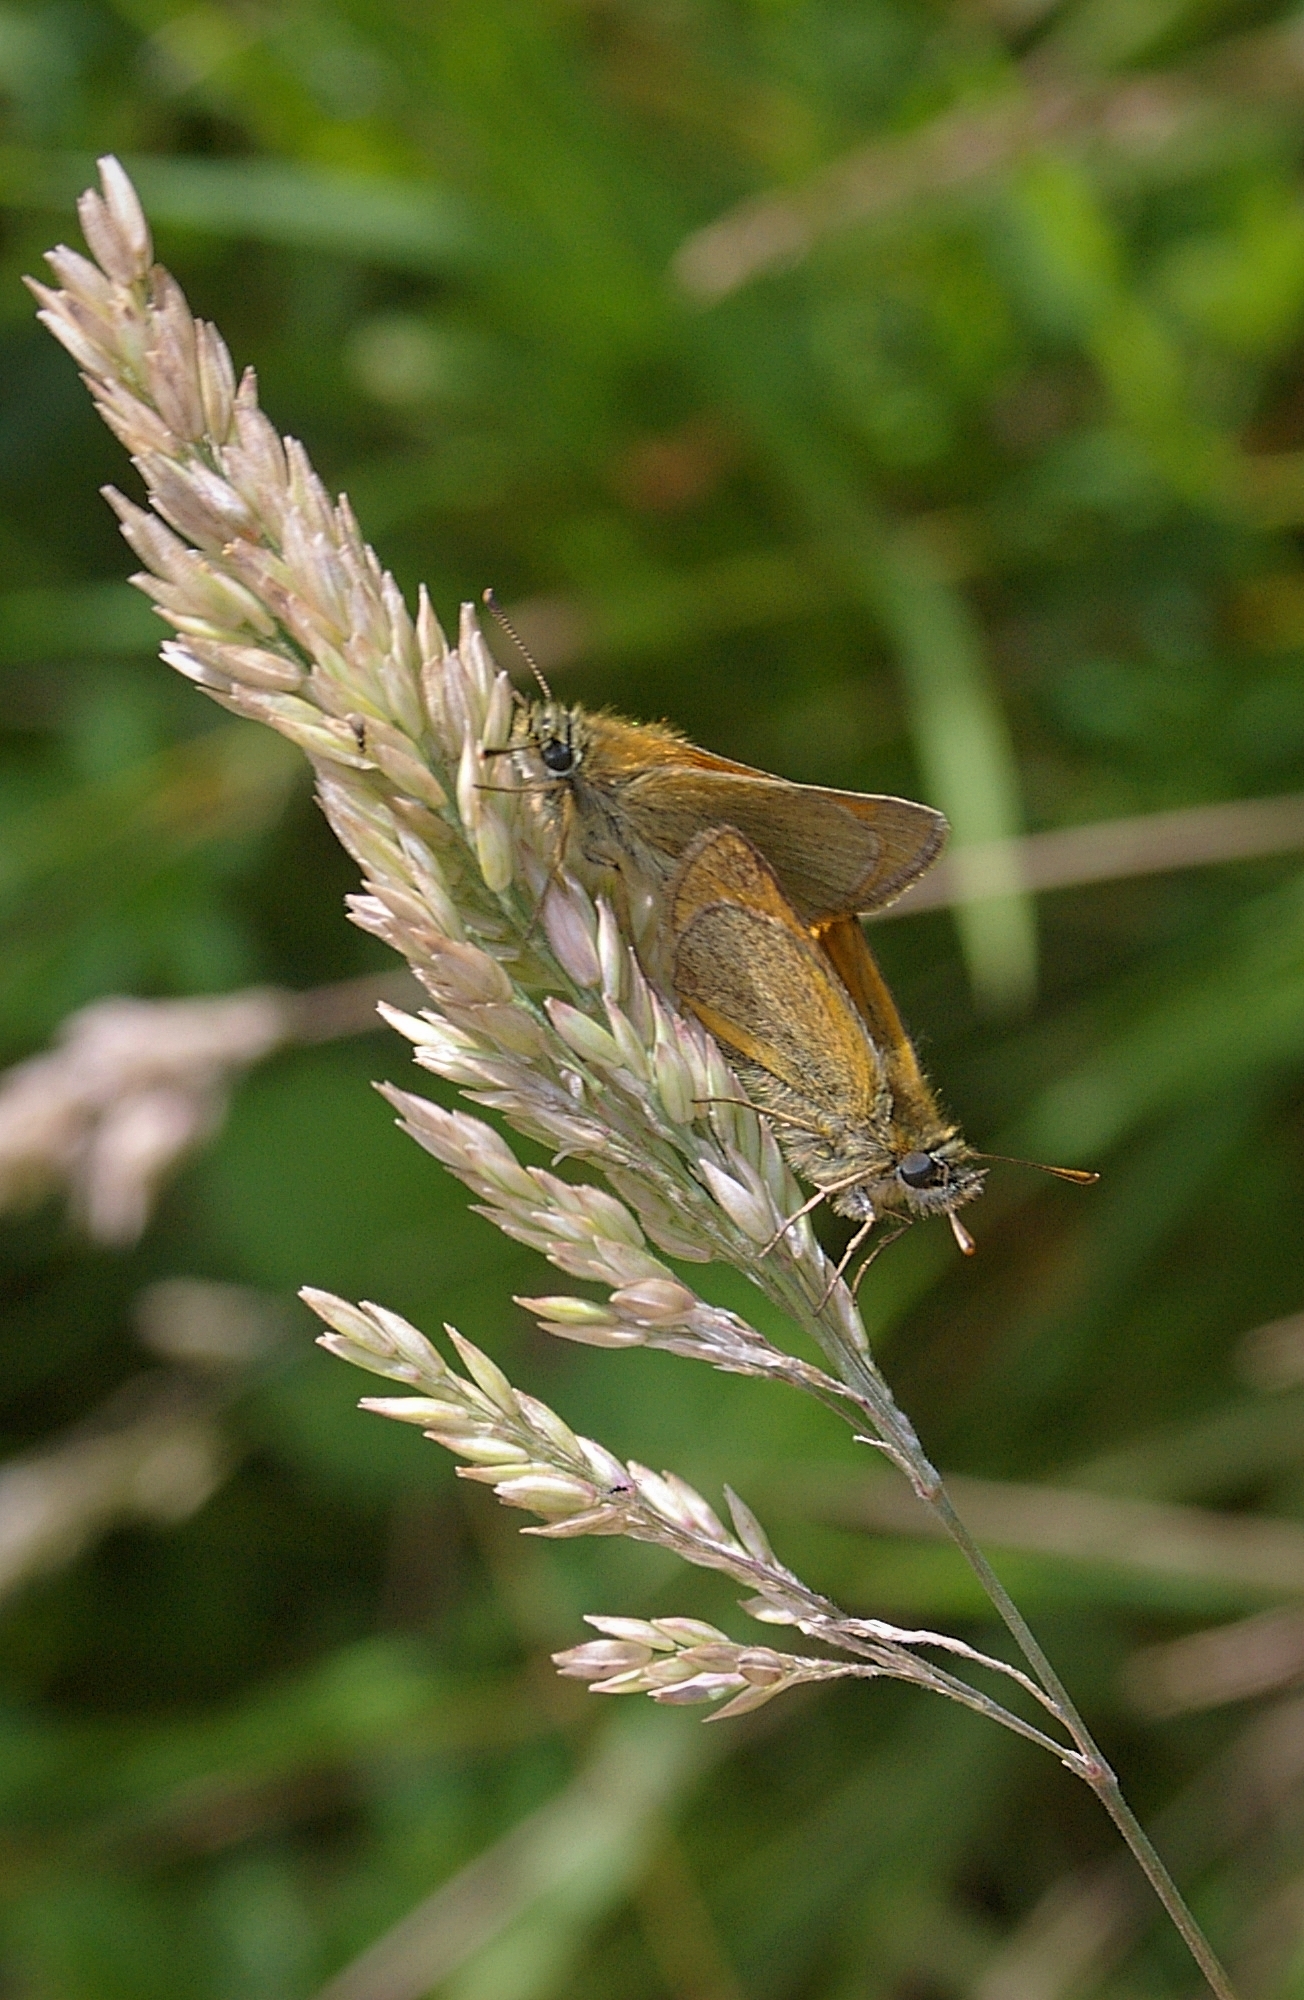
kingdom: Animalia
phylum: Arthropoda
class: Insecta
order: Lepidoptera
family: Hesperiidae
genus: Thymelicus
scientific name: Thymelicus sylvestris
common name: Small skipper
